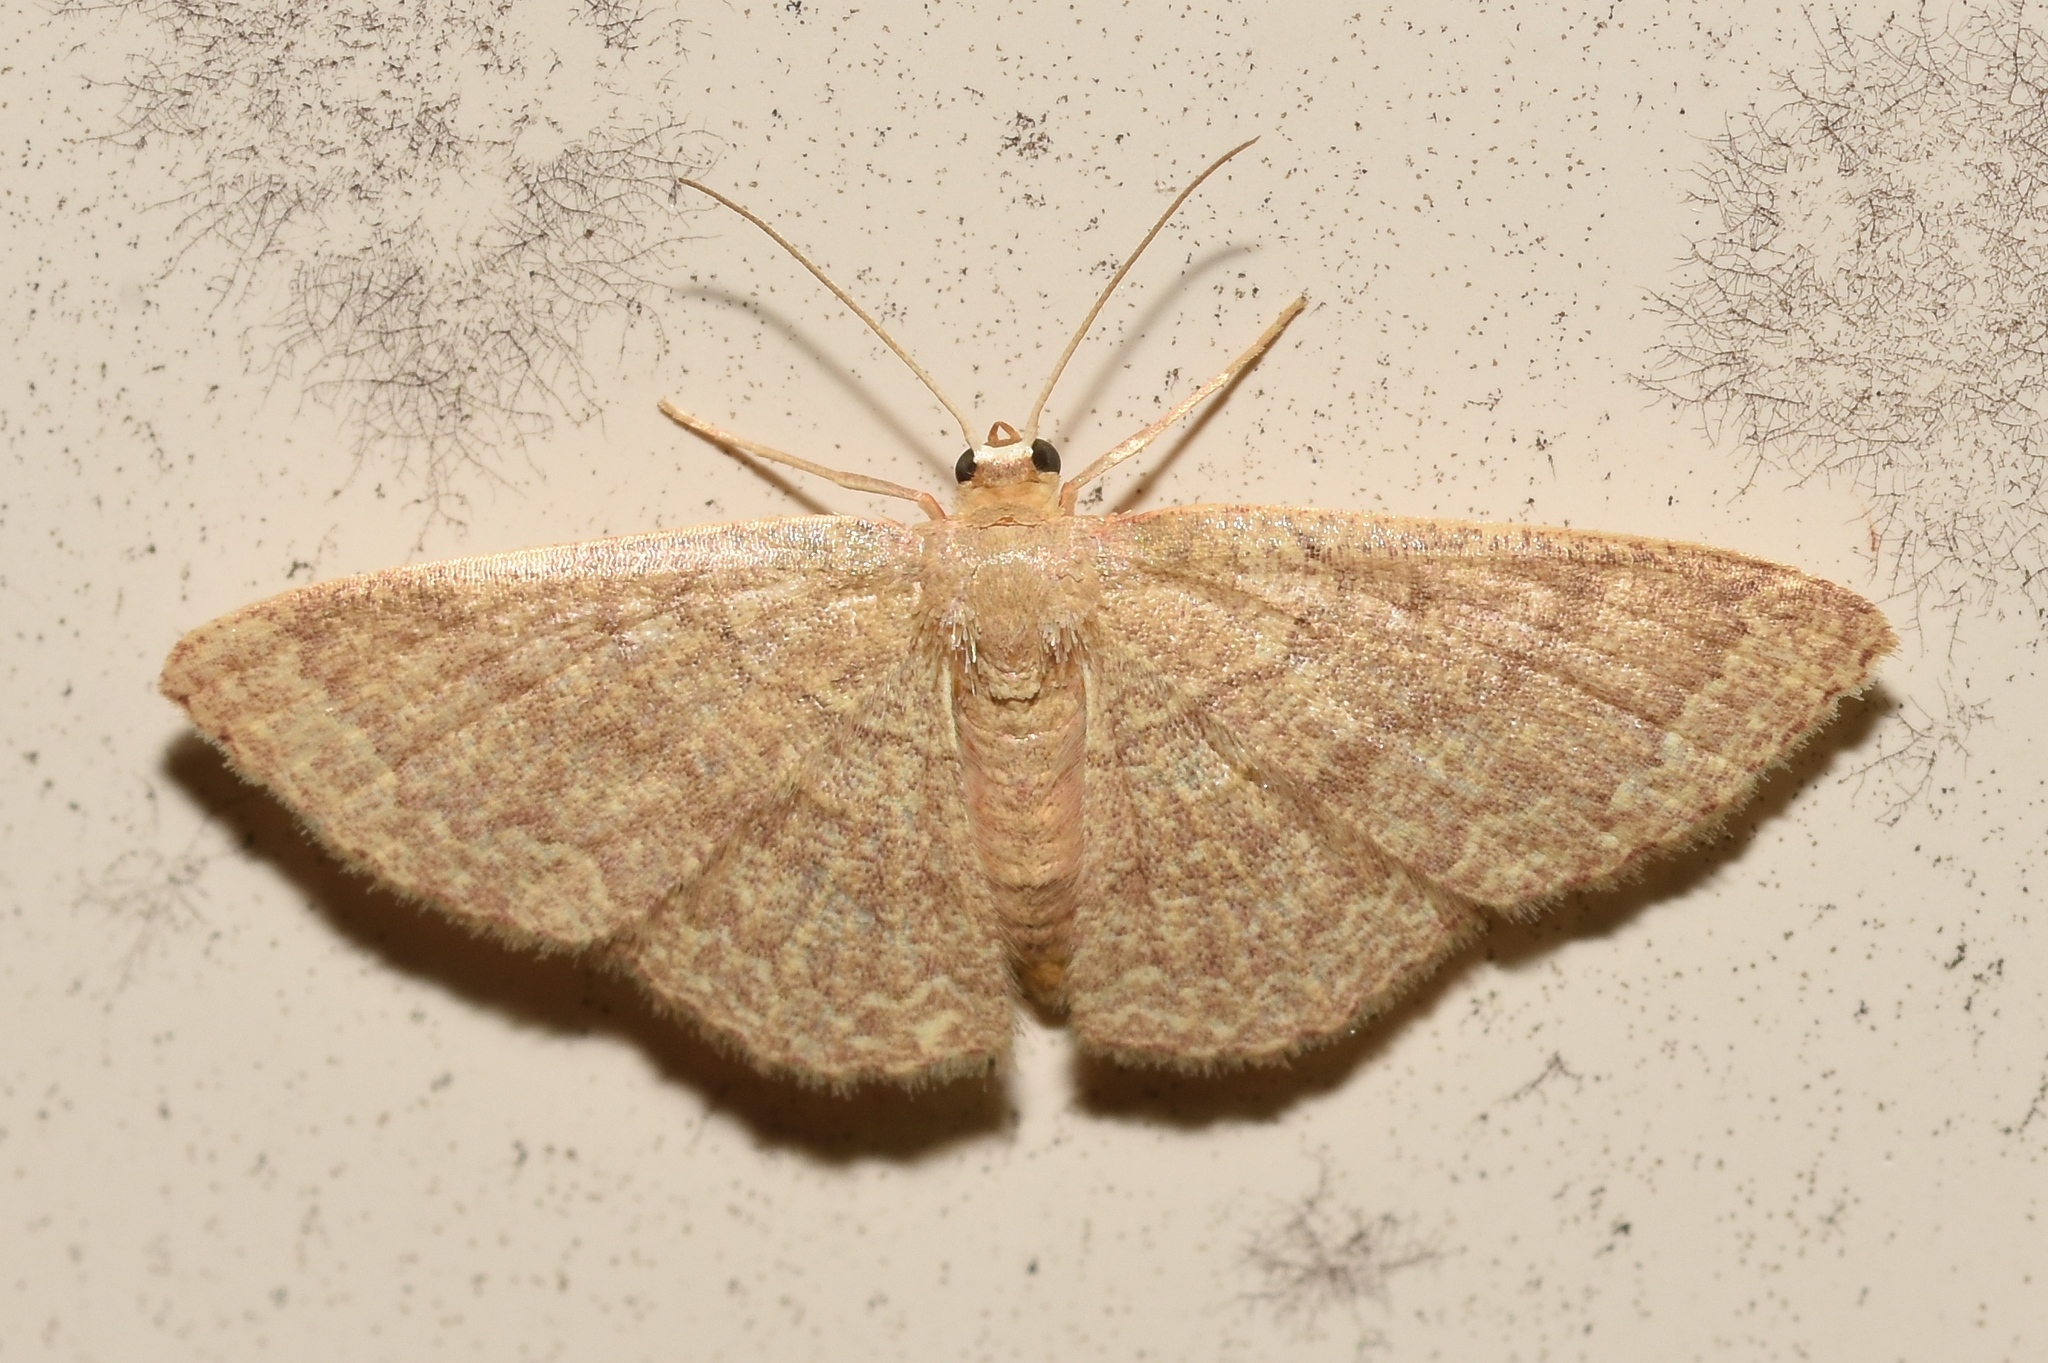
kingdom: Animalia
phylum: Arthropoda
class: Insecta
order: Lepidoptera
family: Geometridae
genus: Pleuroprucha
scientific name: Pleuroprucha insulsaria
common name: Common tan wave
